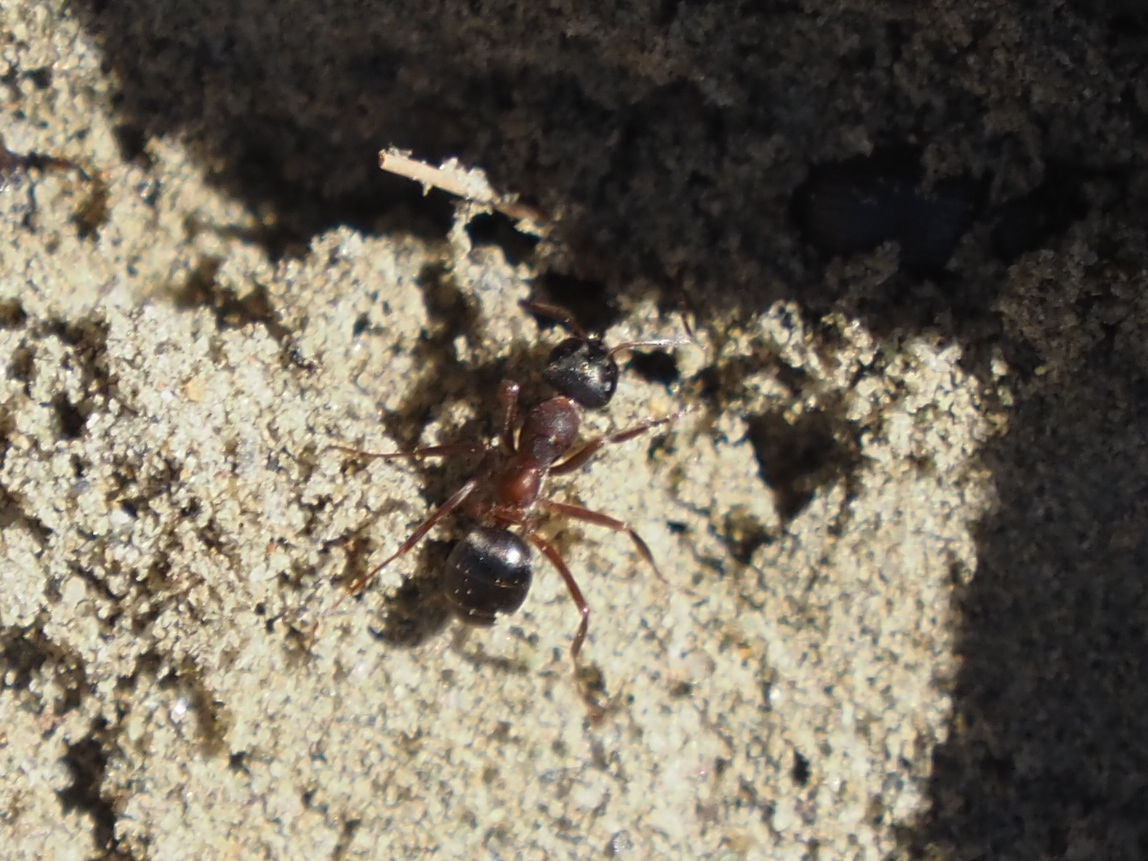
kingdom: Animalia
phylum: Arthropoda
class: Insecta
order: Hymenoptera
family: Formicidae
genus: Formica
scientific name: Formica neorufibarbis
